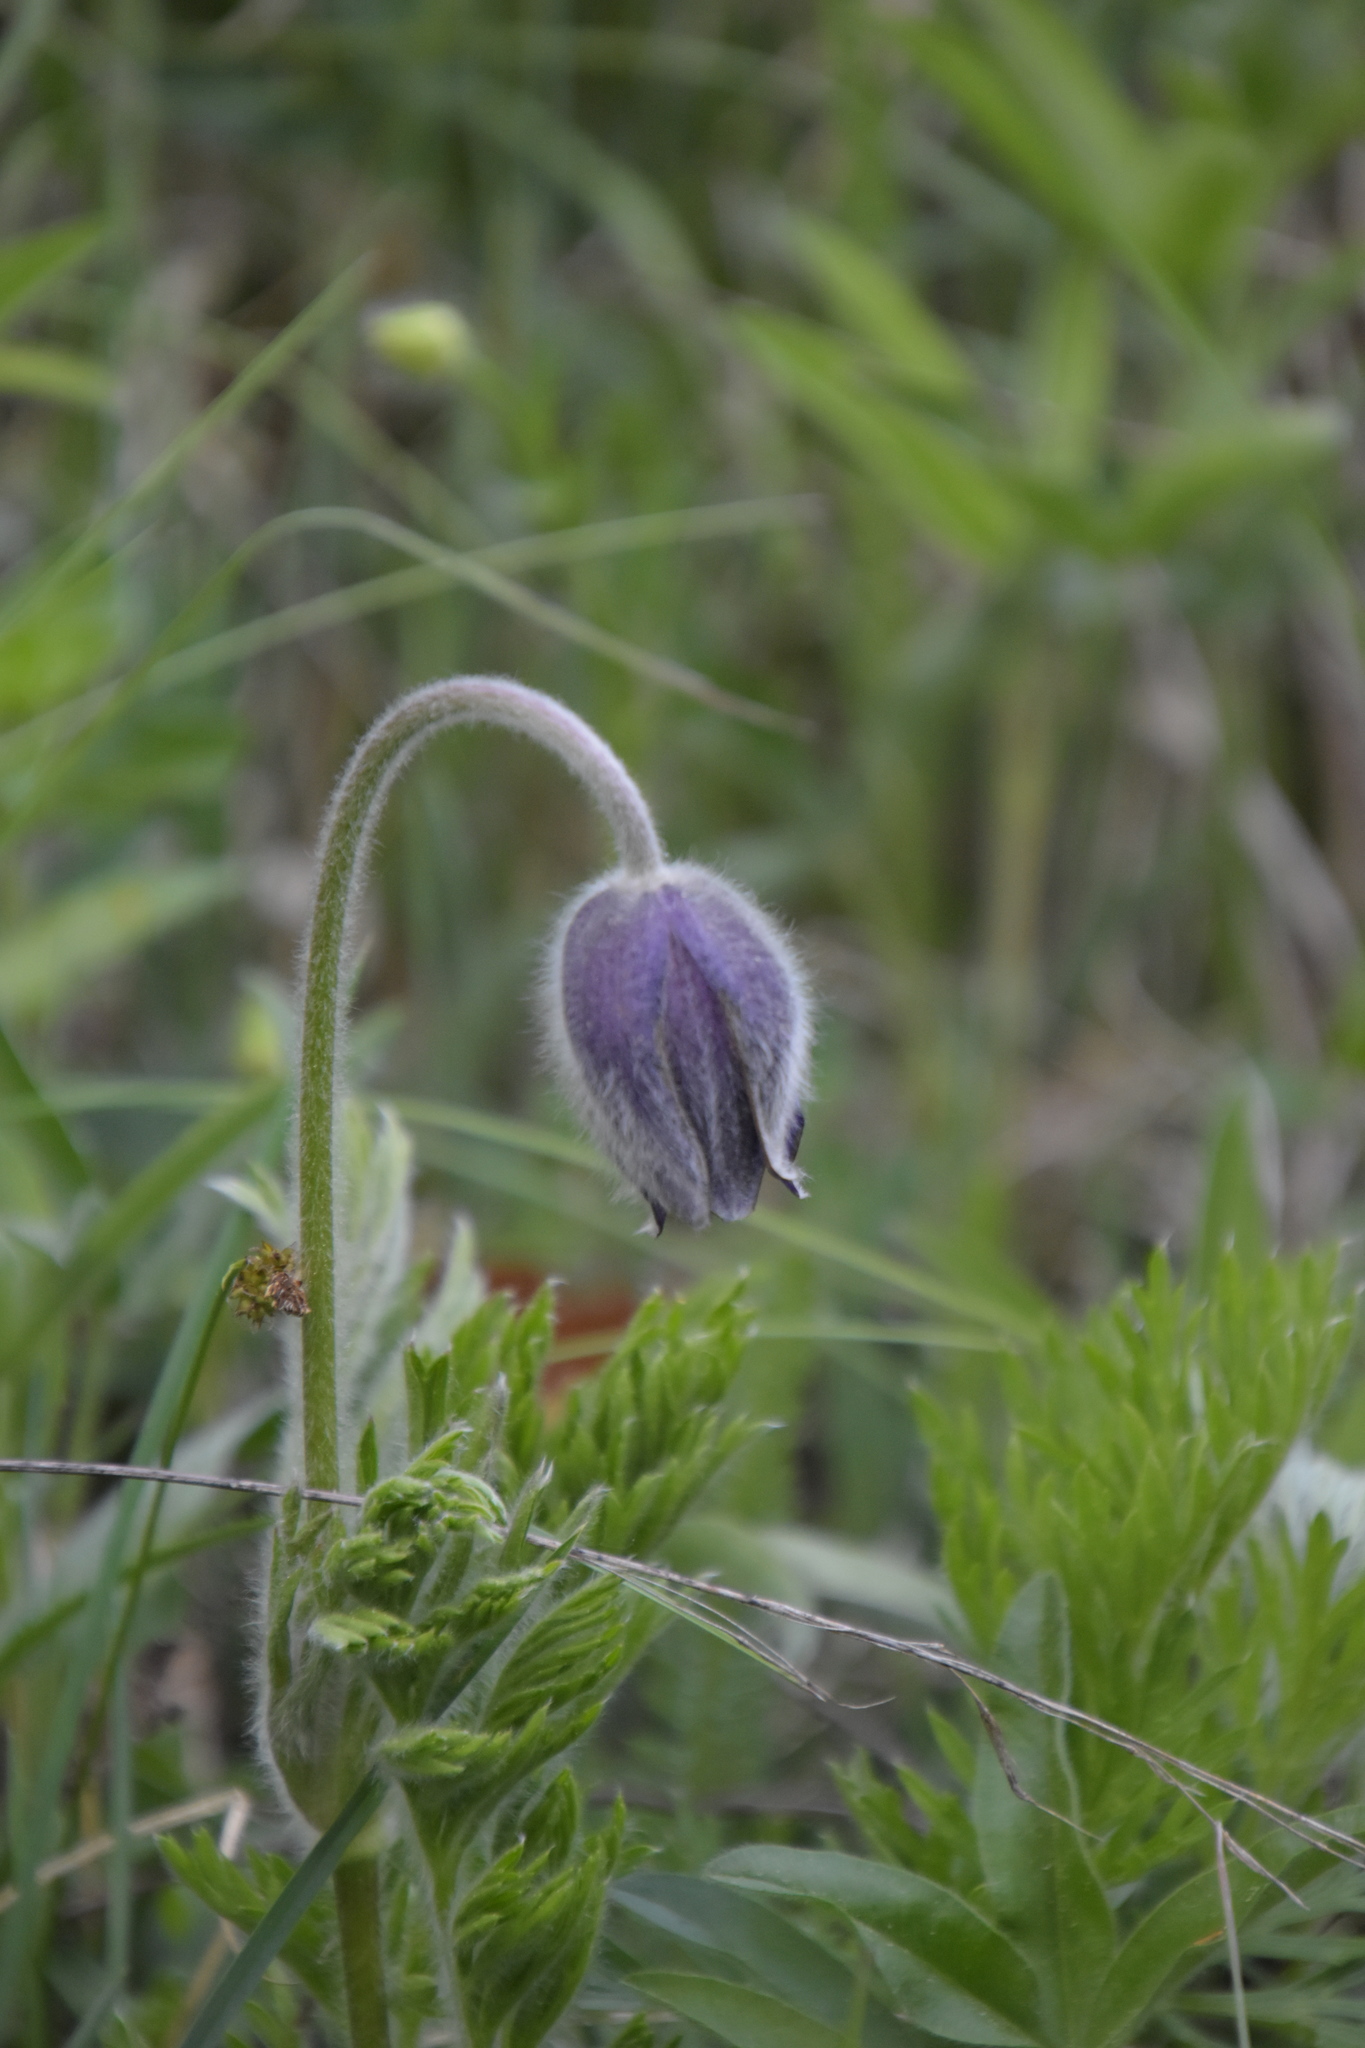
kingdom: Plantae
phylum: Tracheophyta
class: Magnoliopsida
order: Ranunculales
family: Ranunculaceae
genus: Pulsatilla
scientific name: Pulsatilla montana
